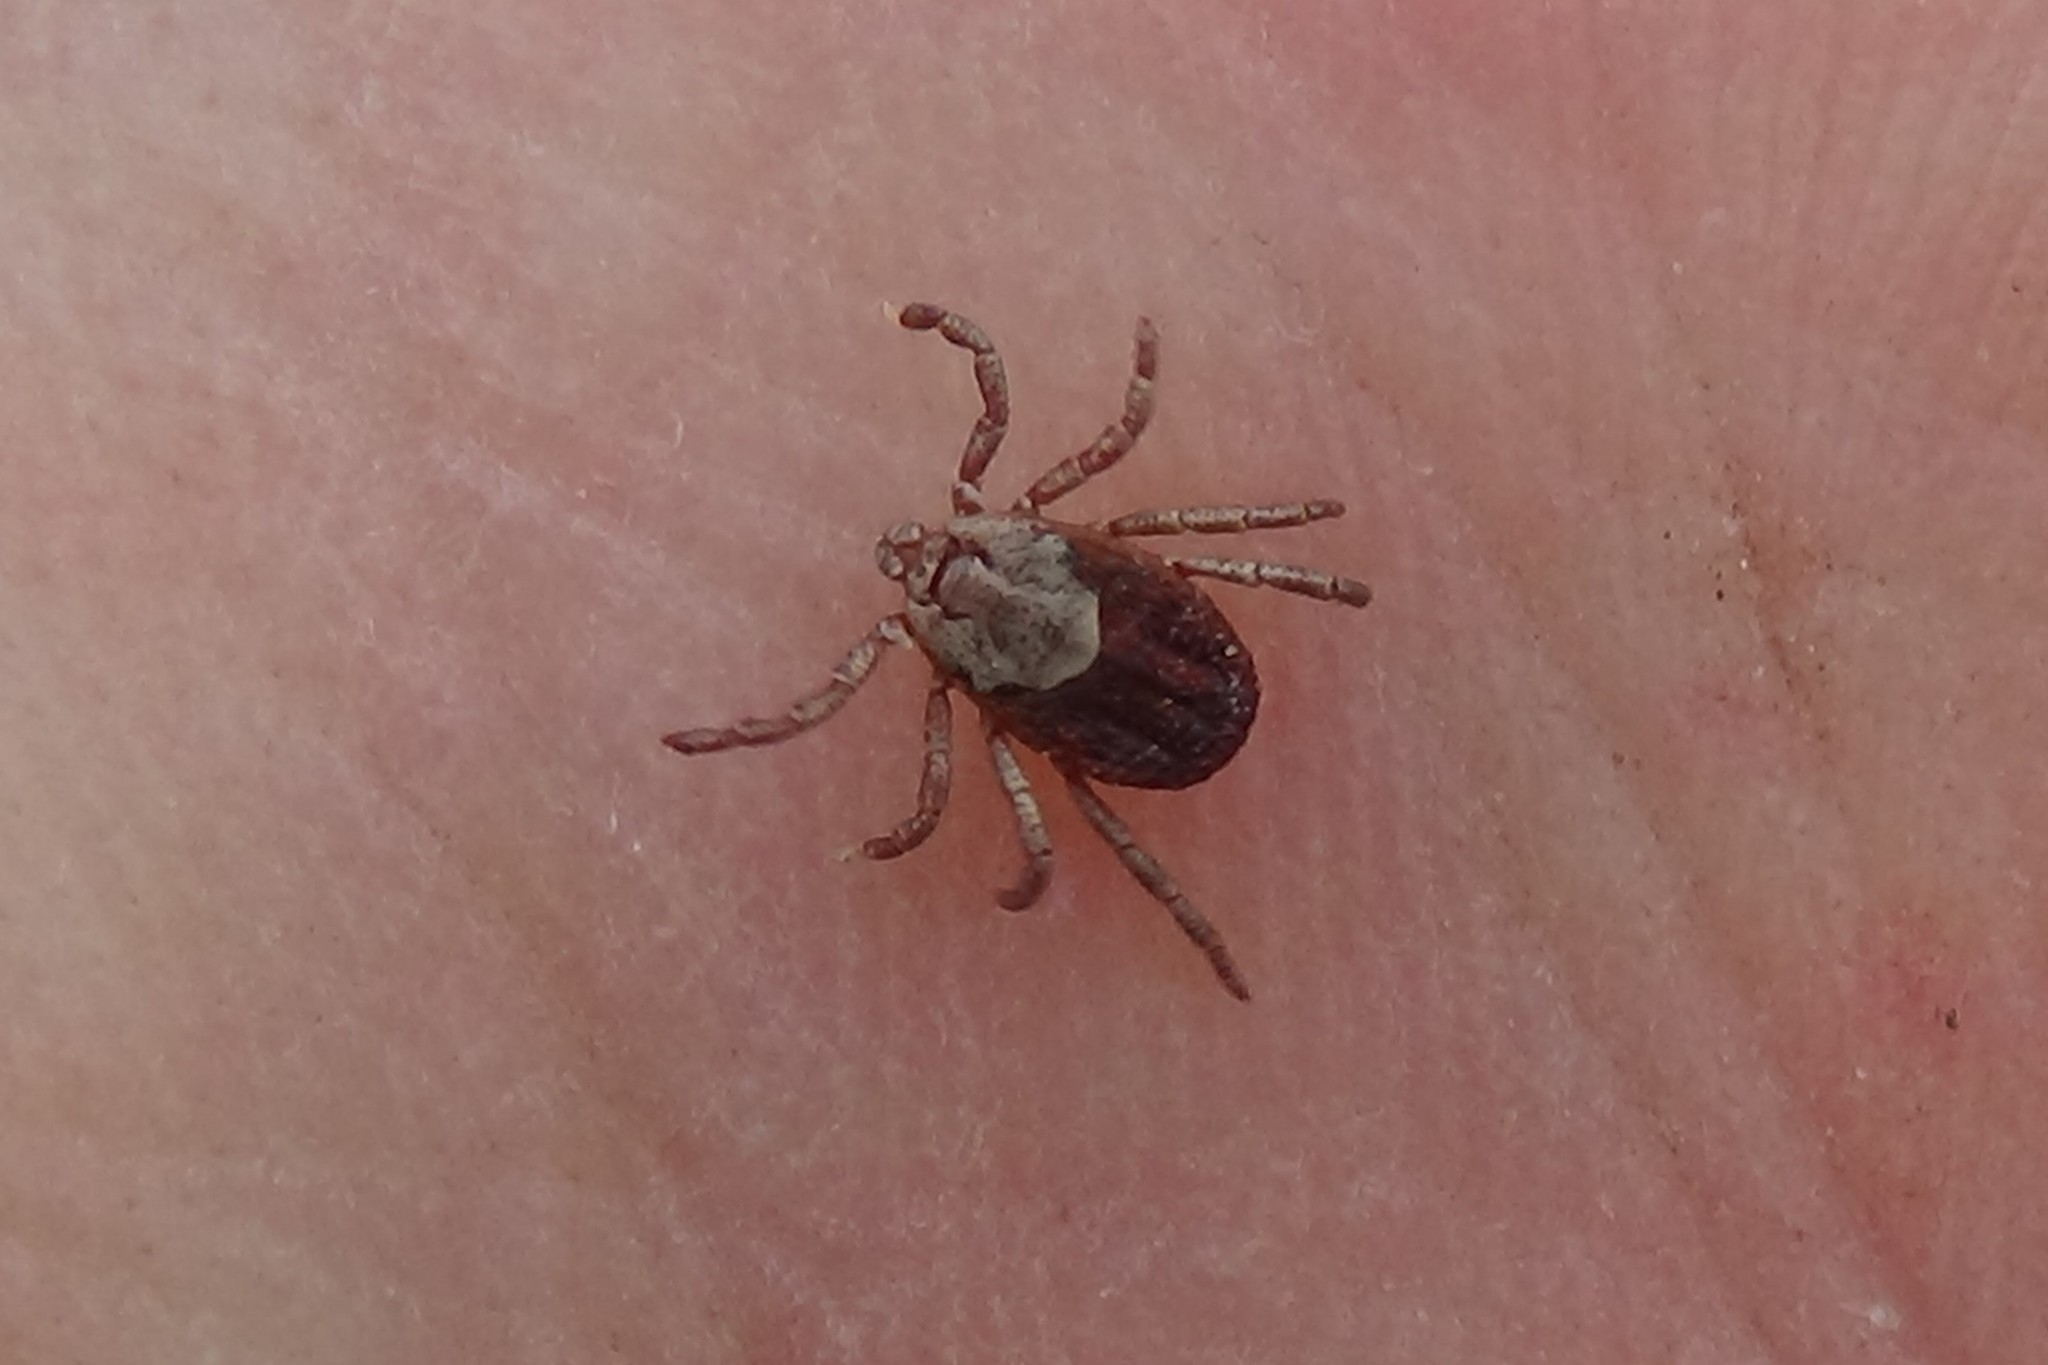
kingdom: Animalia
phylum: Arthropoda
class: Arachnida
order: Ixodida
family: Ixodidae
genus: Dermacentor
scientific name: Dermacentor occidentalis
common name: Net tick
